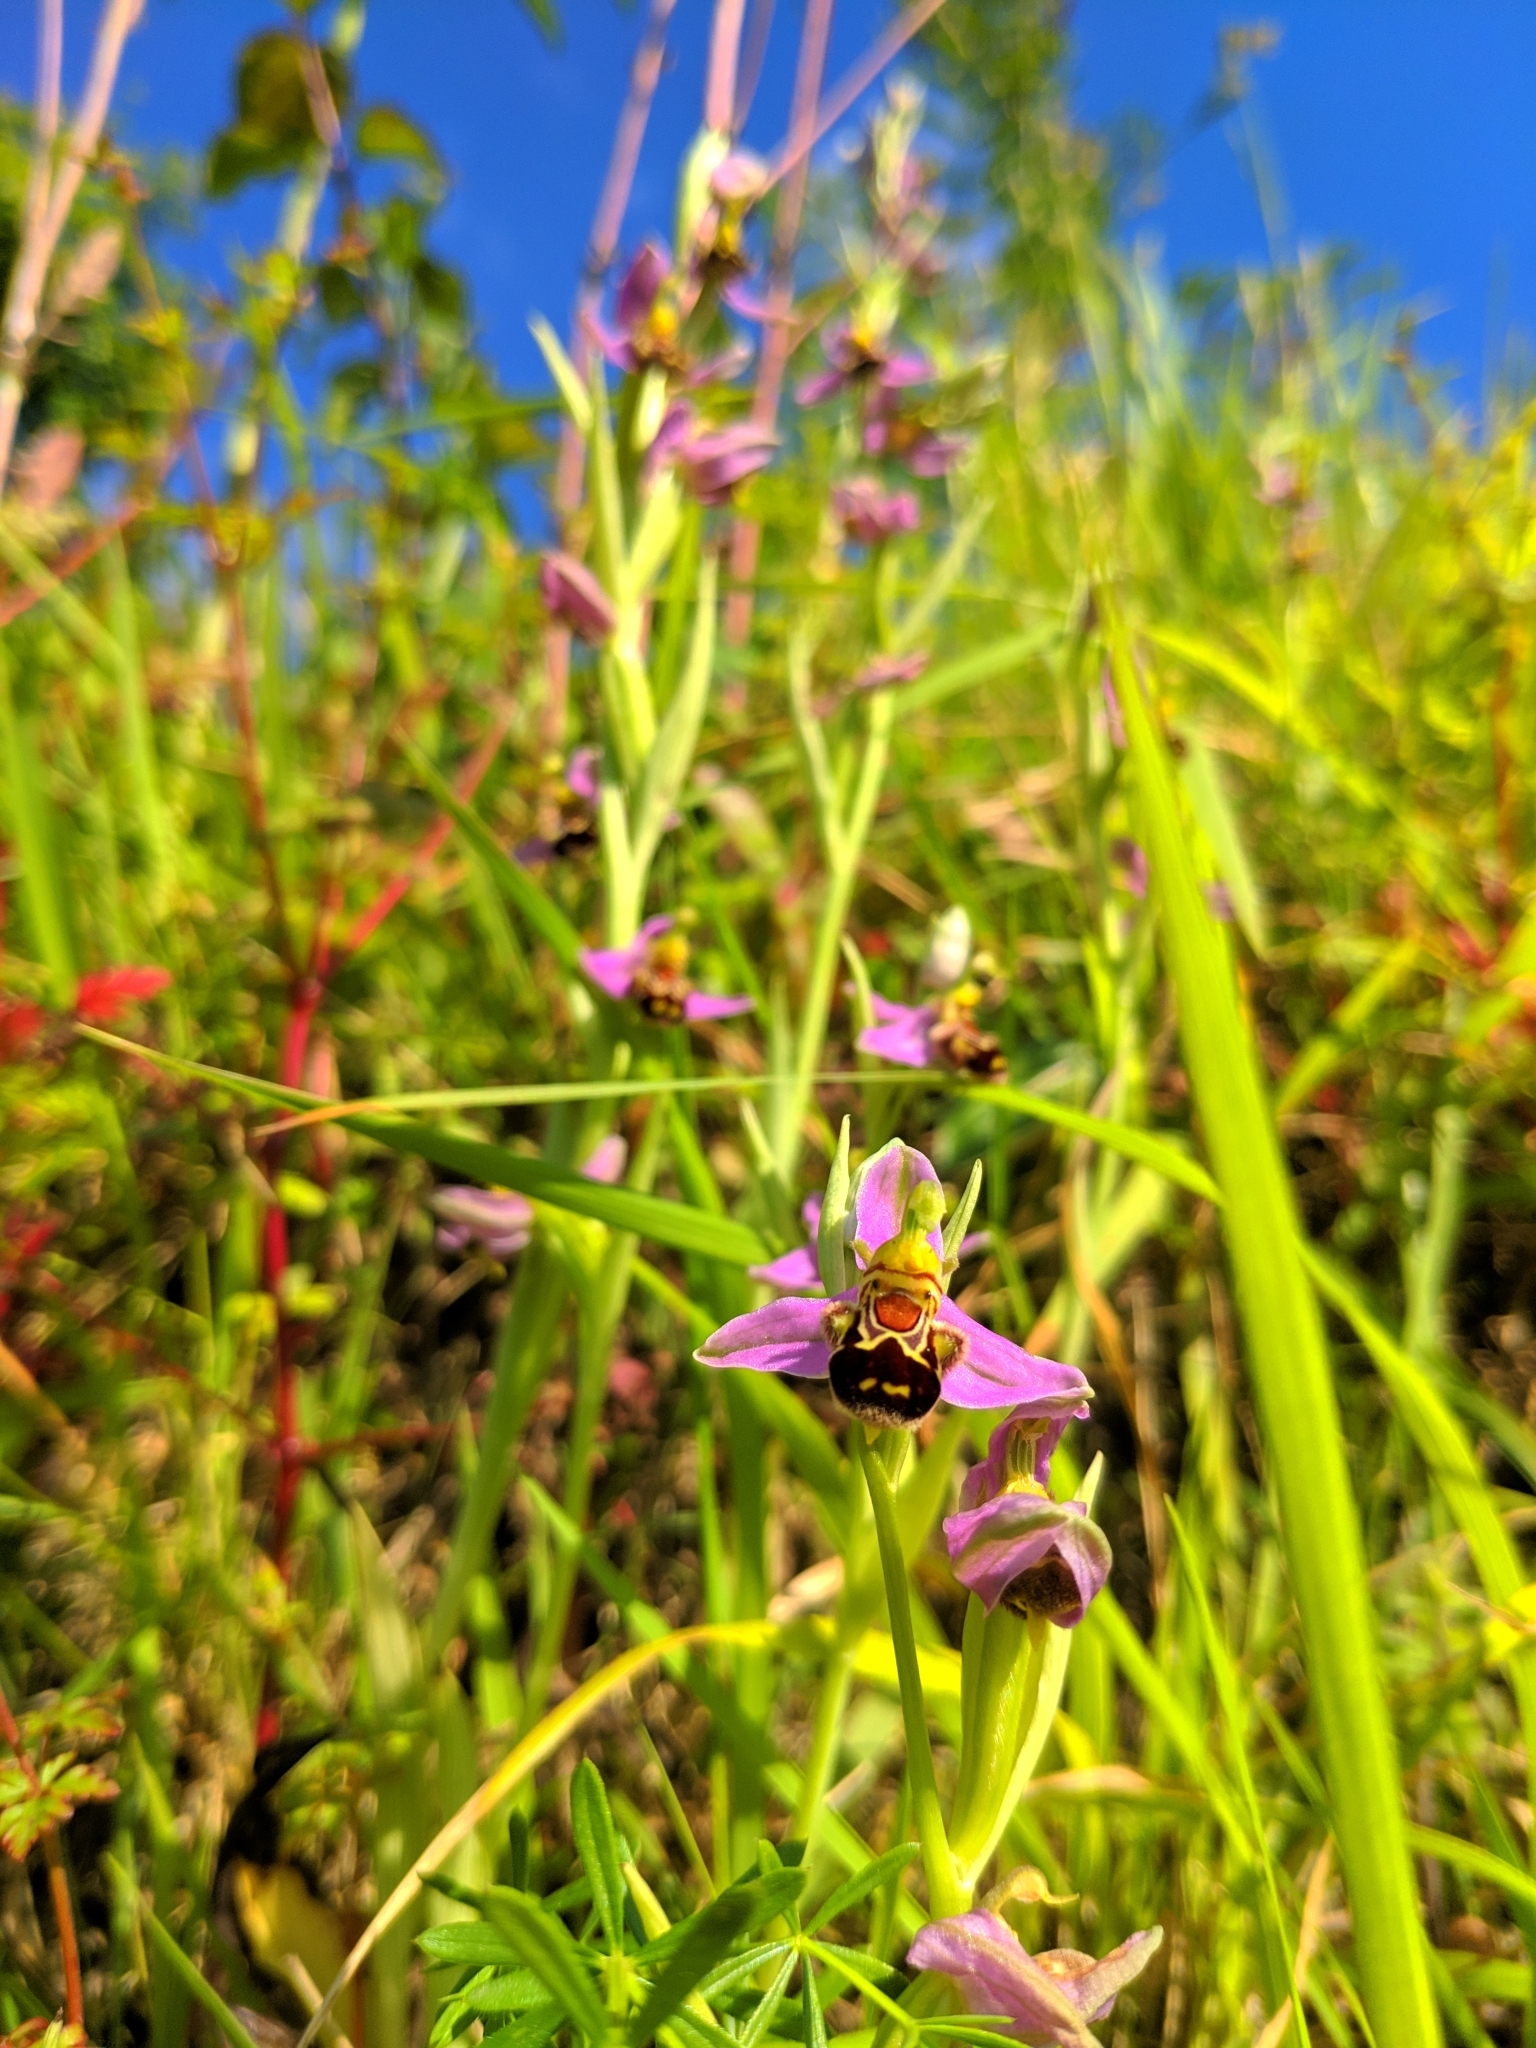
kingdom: Plantae
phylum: Tracheophyta
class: Liliopsida
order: Asparagales
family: Orchidaceae
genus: Ophrys
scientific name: Ophrys apifera
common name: Bee orchid
